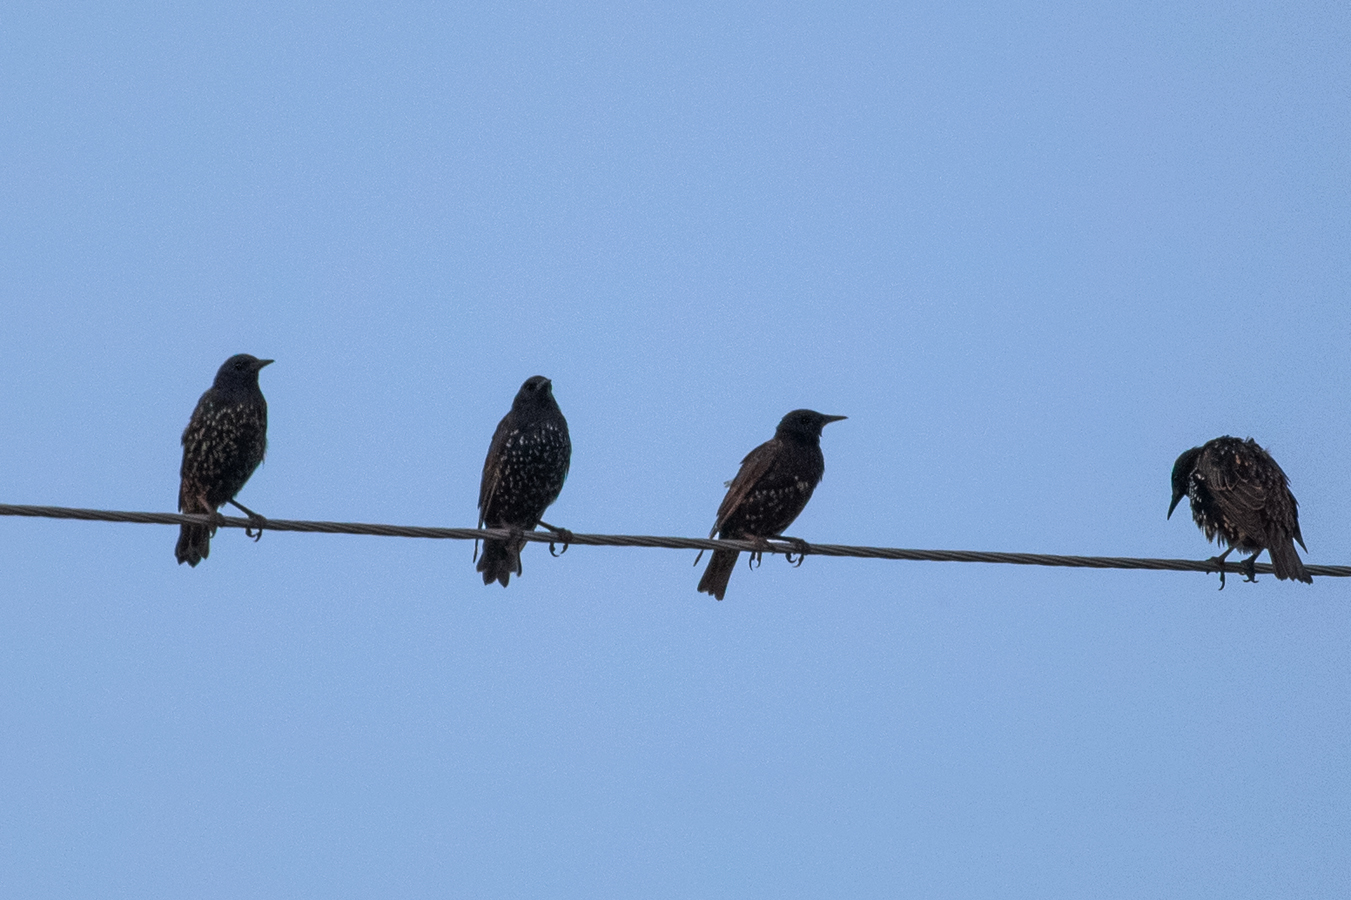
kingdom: Animalia
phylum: Chordata
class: Aves
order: Passeriformes
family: Sturnidae
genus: Sturnus
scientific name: Sturnus vulgaris
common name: Common starling
